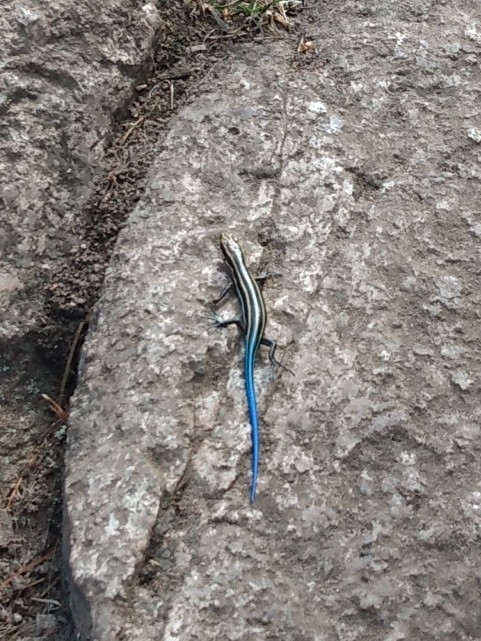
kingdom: Animalia
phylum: Chordata
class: Squamata
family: Scincidae
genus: Plestiodon
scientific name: Plestiodon fasciatus
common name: Five-lined skink
